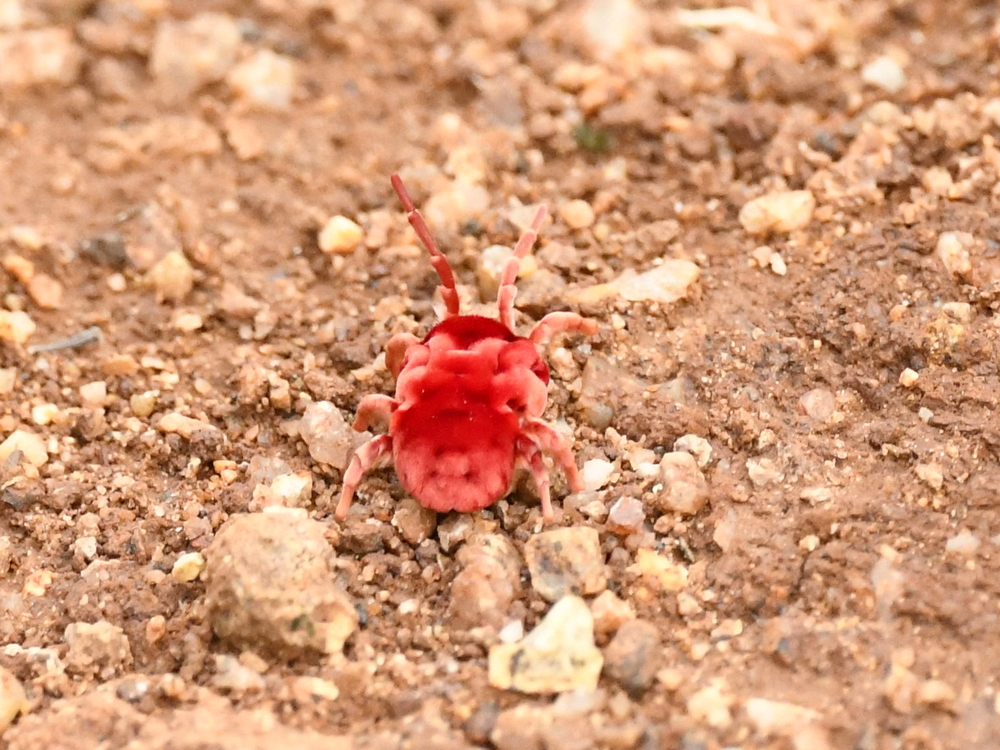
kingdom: Animalia
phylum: Arthropoda
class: Arachnida
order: Trombidiformes
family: Leeuwenhoekiidae
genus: Dinothrombium
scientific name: Dinothrombium
